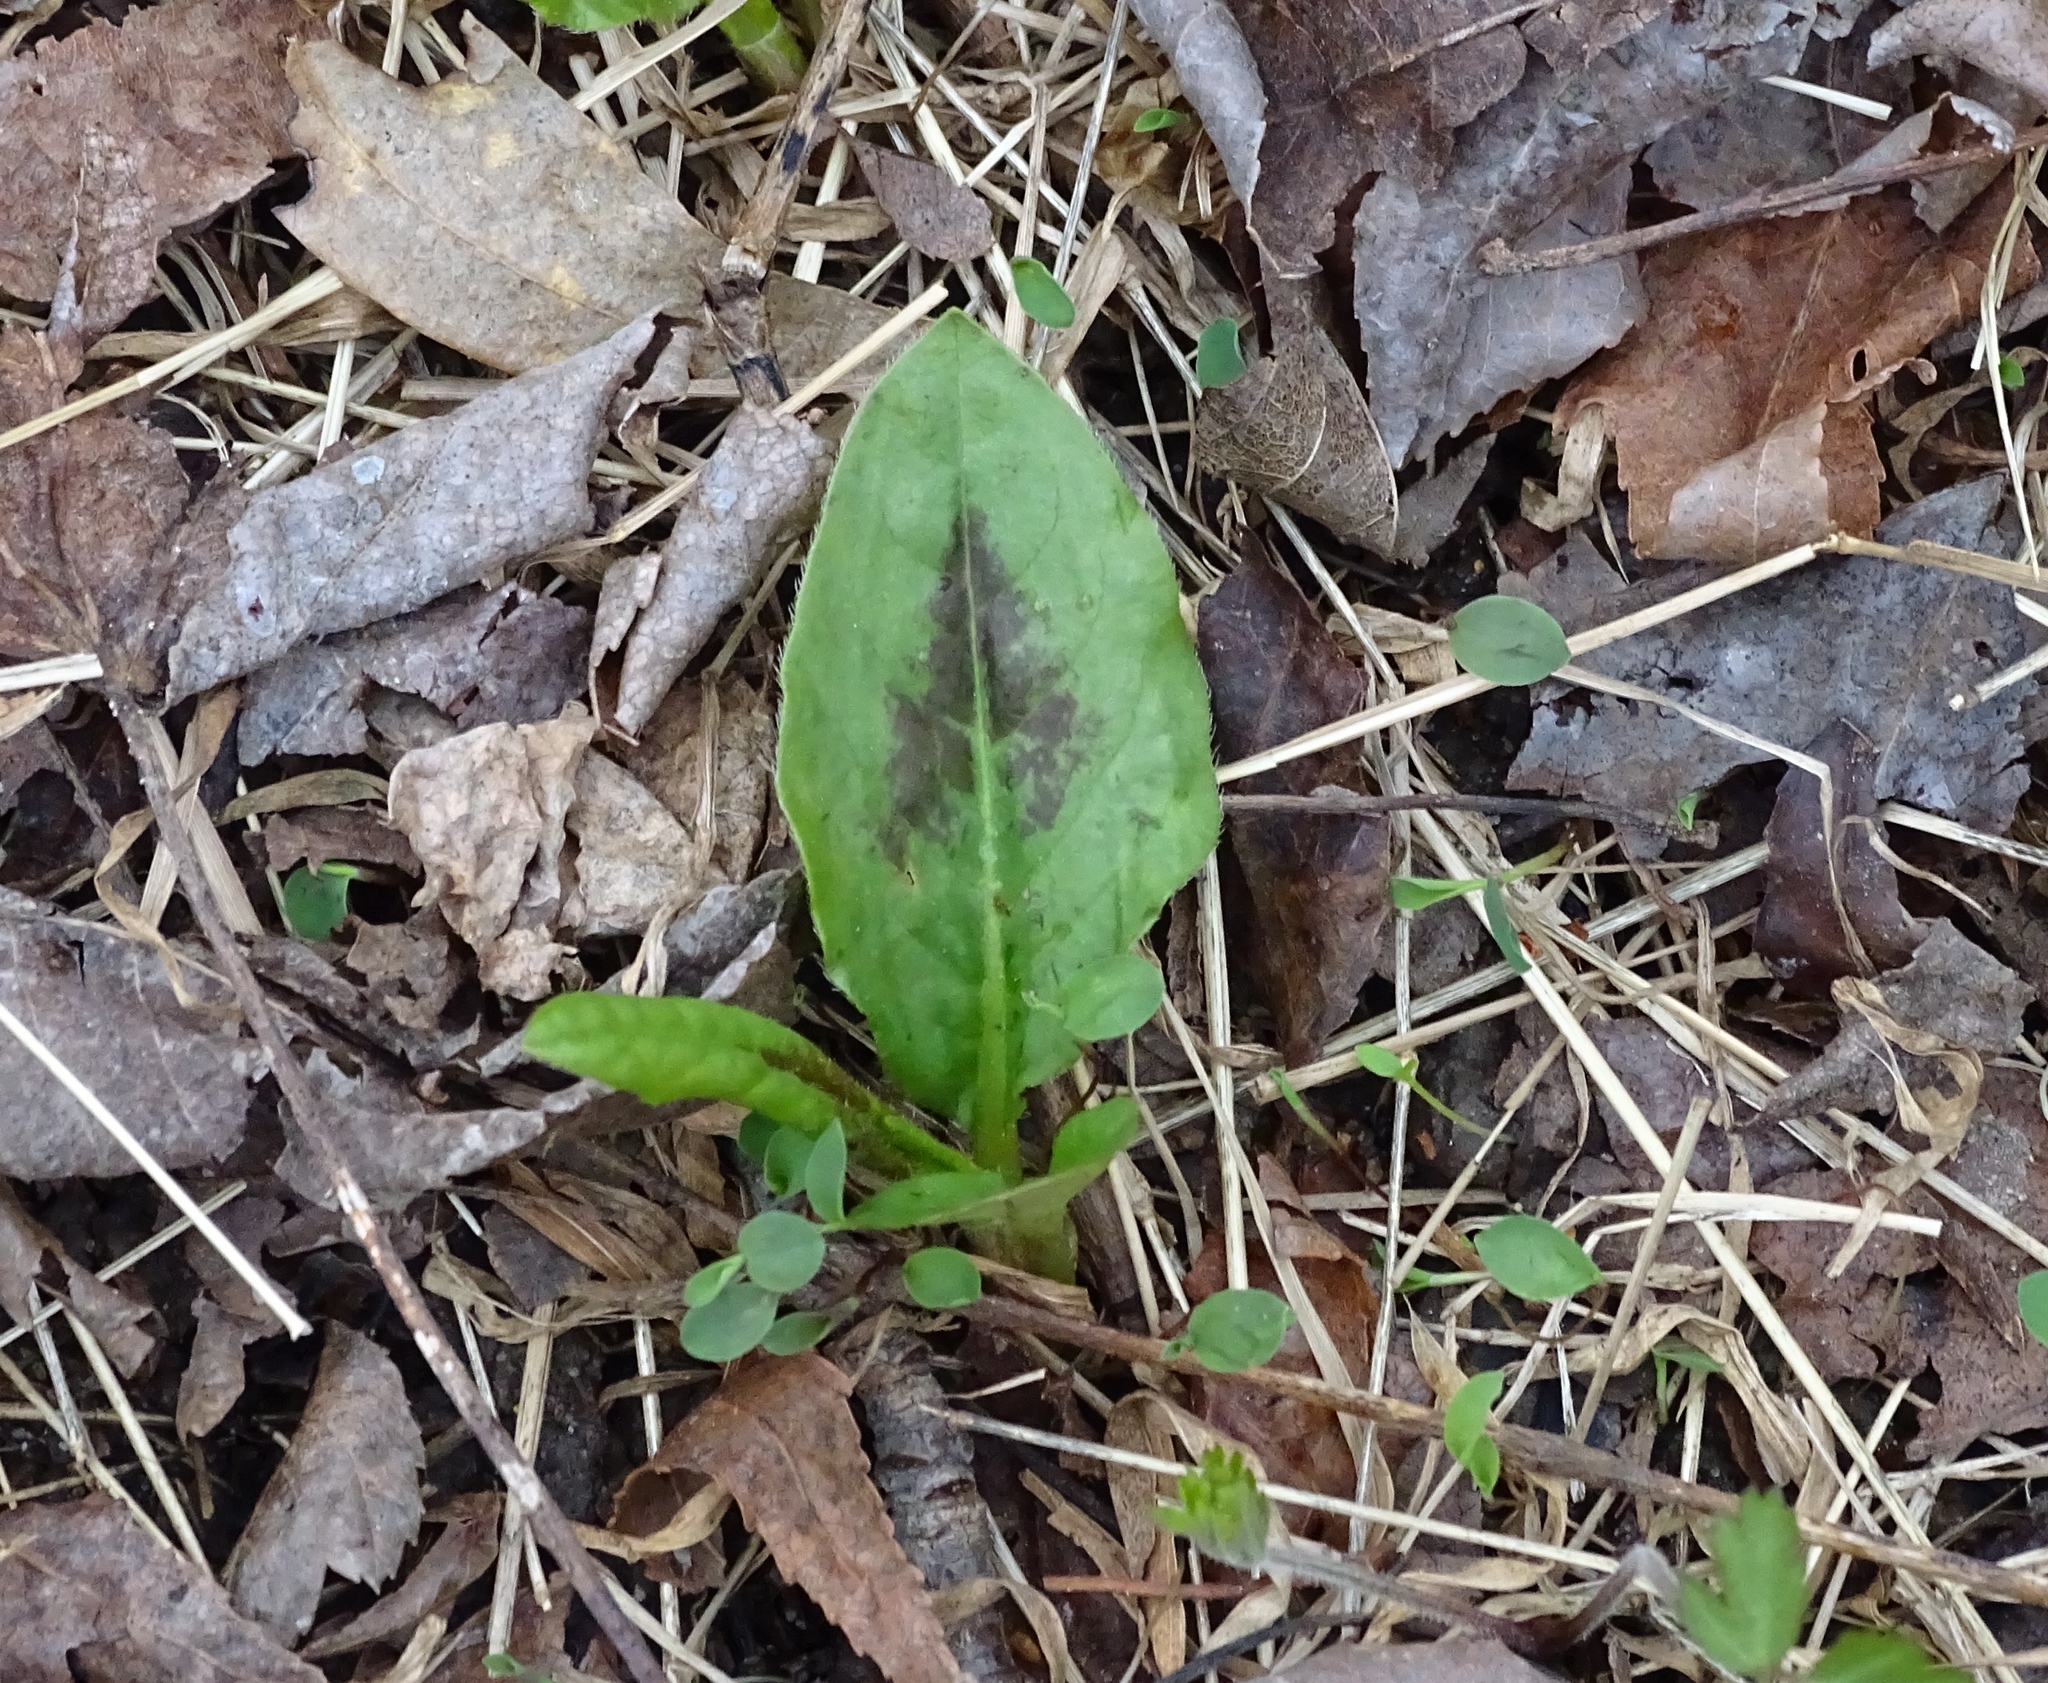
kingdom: Plantae
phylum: Tracheophyta
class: Magnoliopsida
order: Caryophyllales
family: Polygonaceae
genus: Persicaria
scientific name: Persicaria virginiana
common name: Jumpseed
